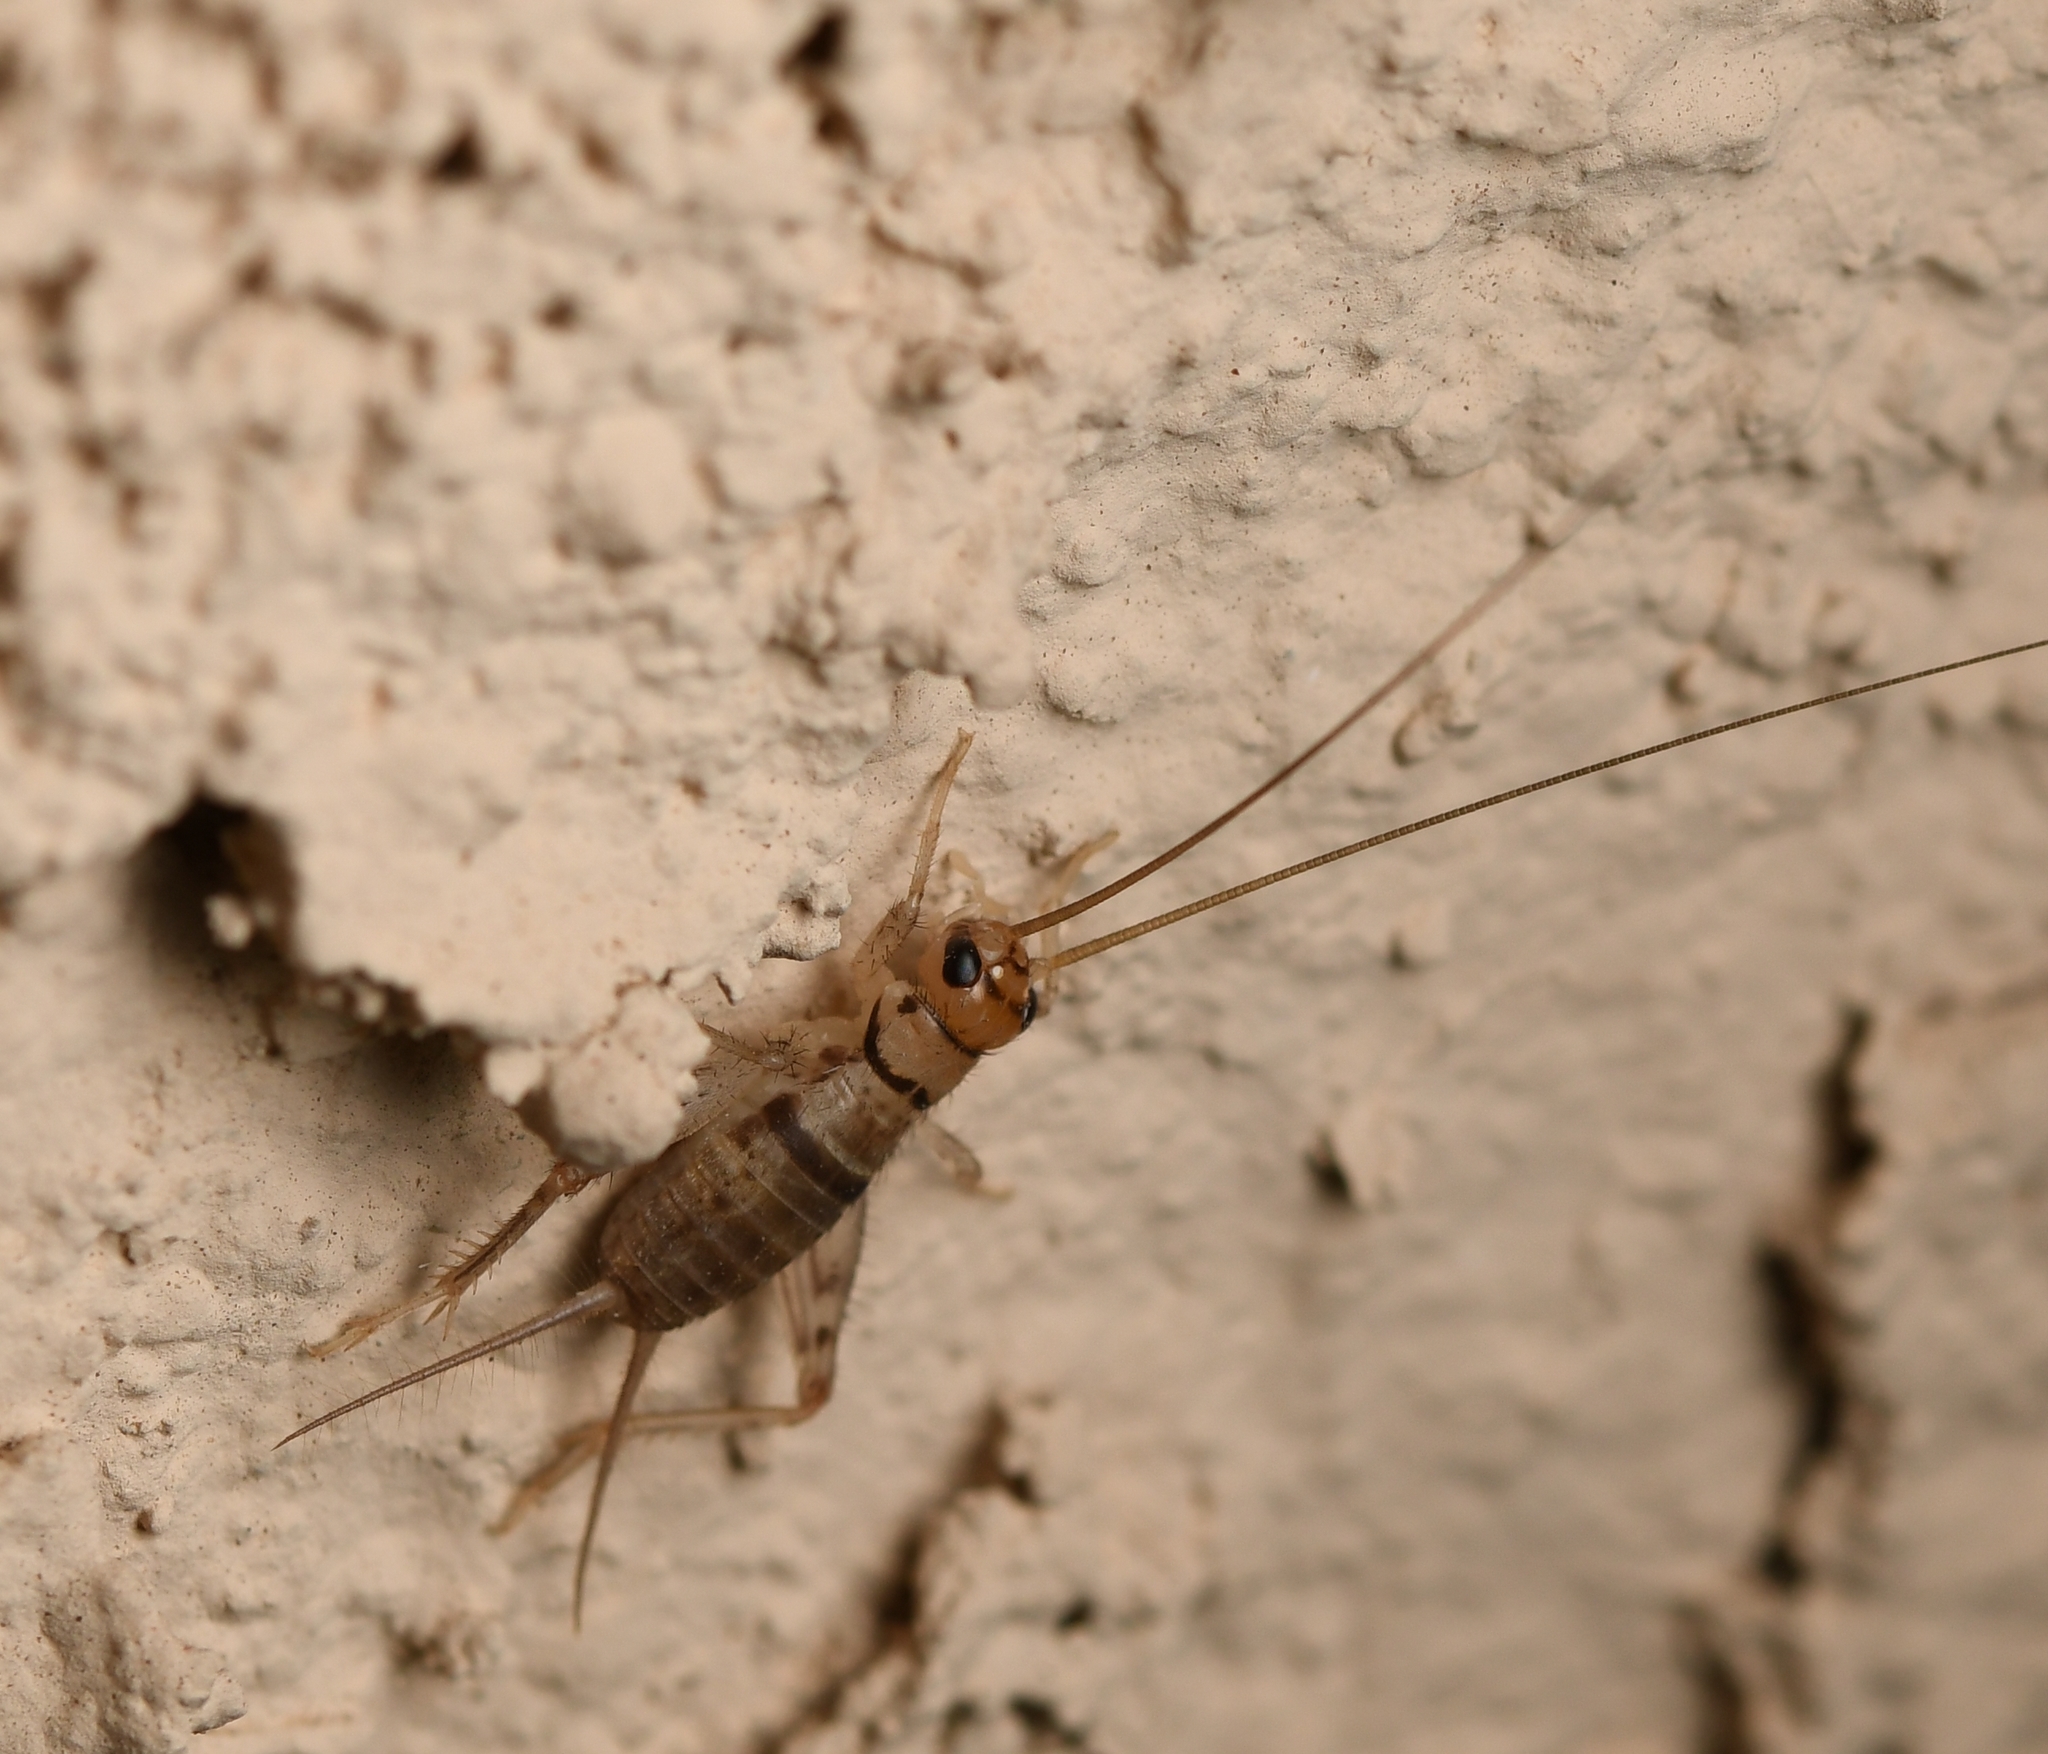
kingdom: Animalia
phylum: Arthropoda
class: Insecta
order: Orthoptera
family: Gryllidae
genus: Gryllodes
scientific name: Gryllodes sigillatus
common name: Tropical house cricket
